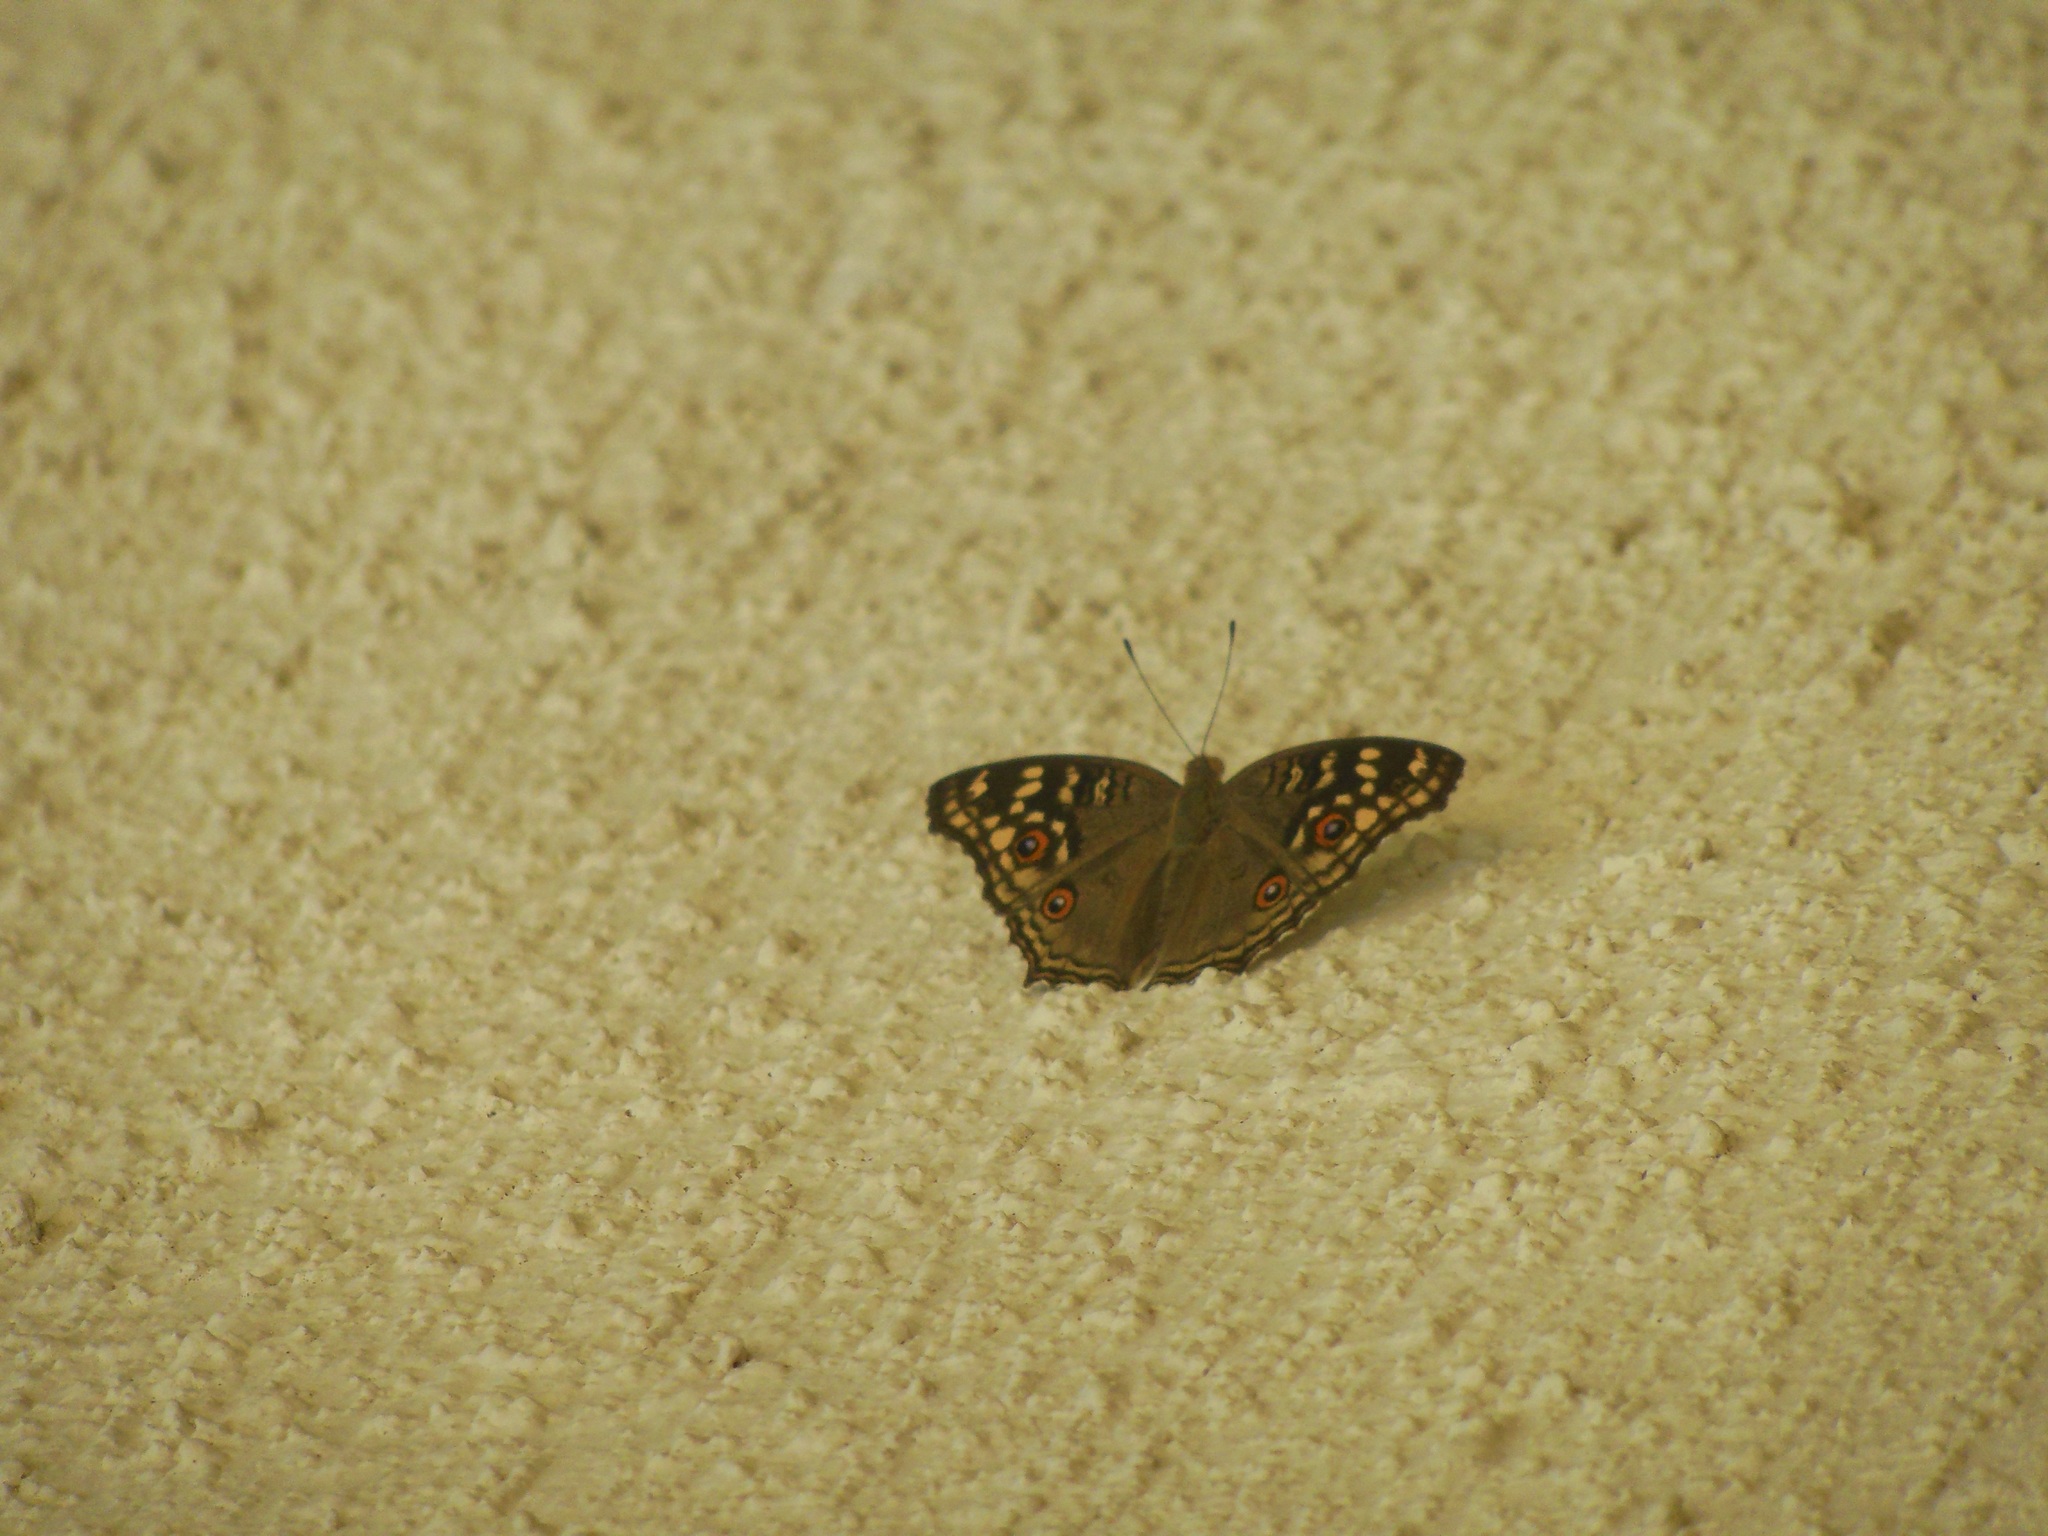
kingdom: Animalia
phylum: Arthropoda
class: Insecta
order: Lepidoptera
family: Nymphalidae
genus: Junonia
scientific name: Junonia lemonias
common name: Lemon pansy
